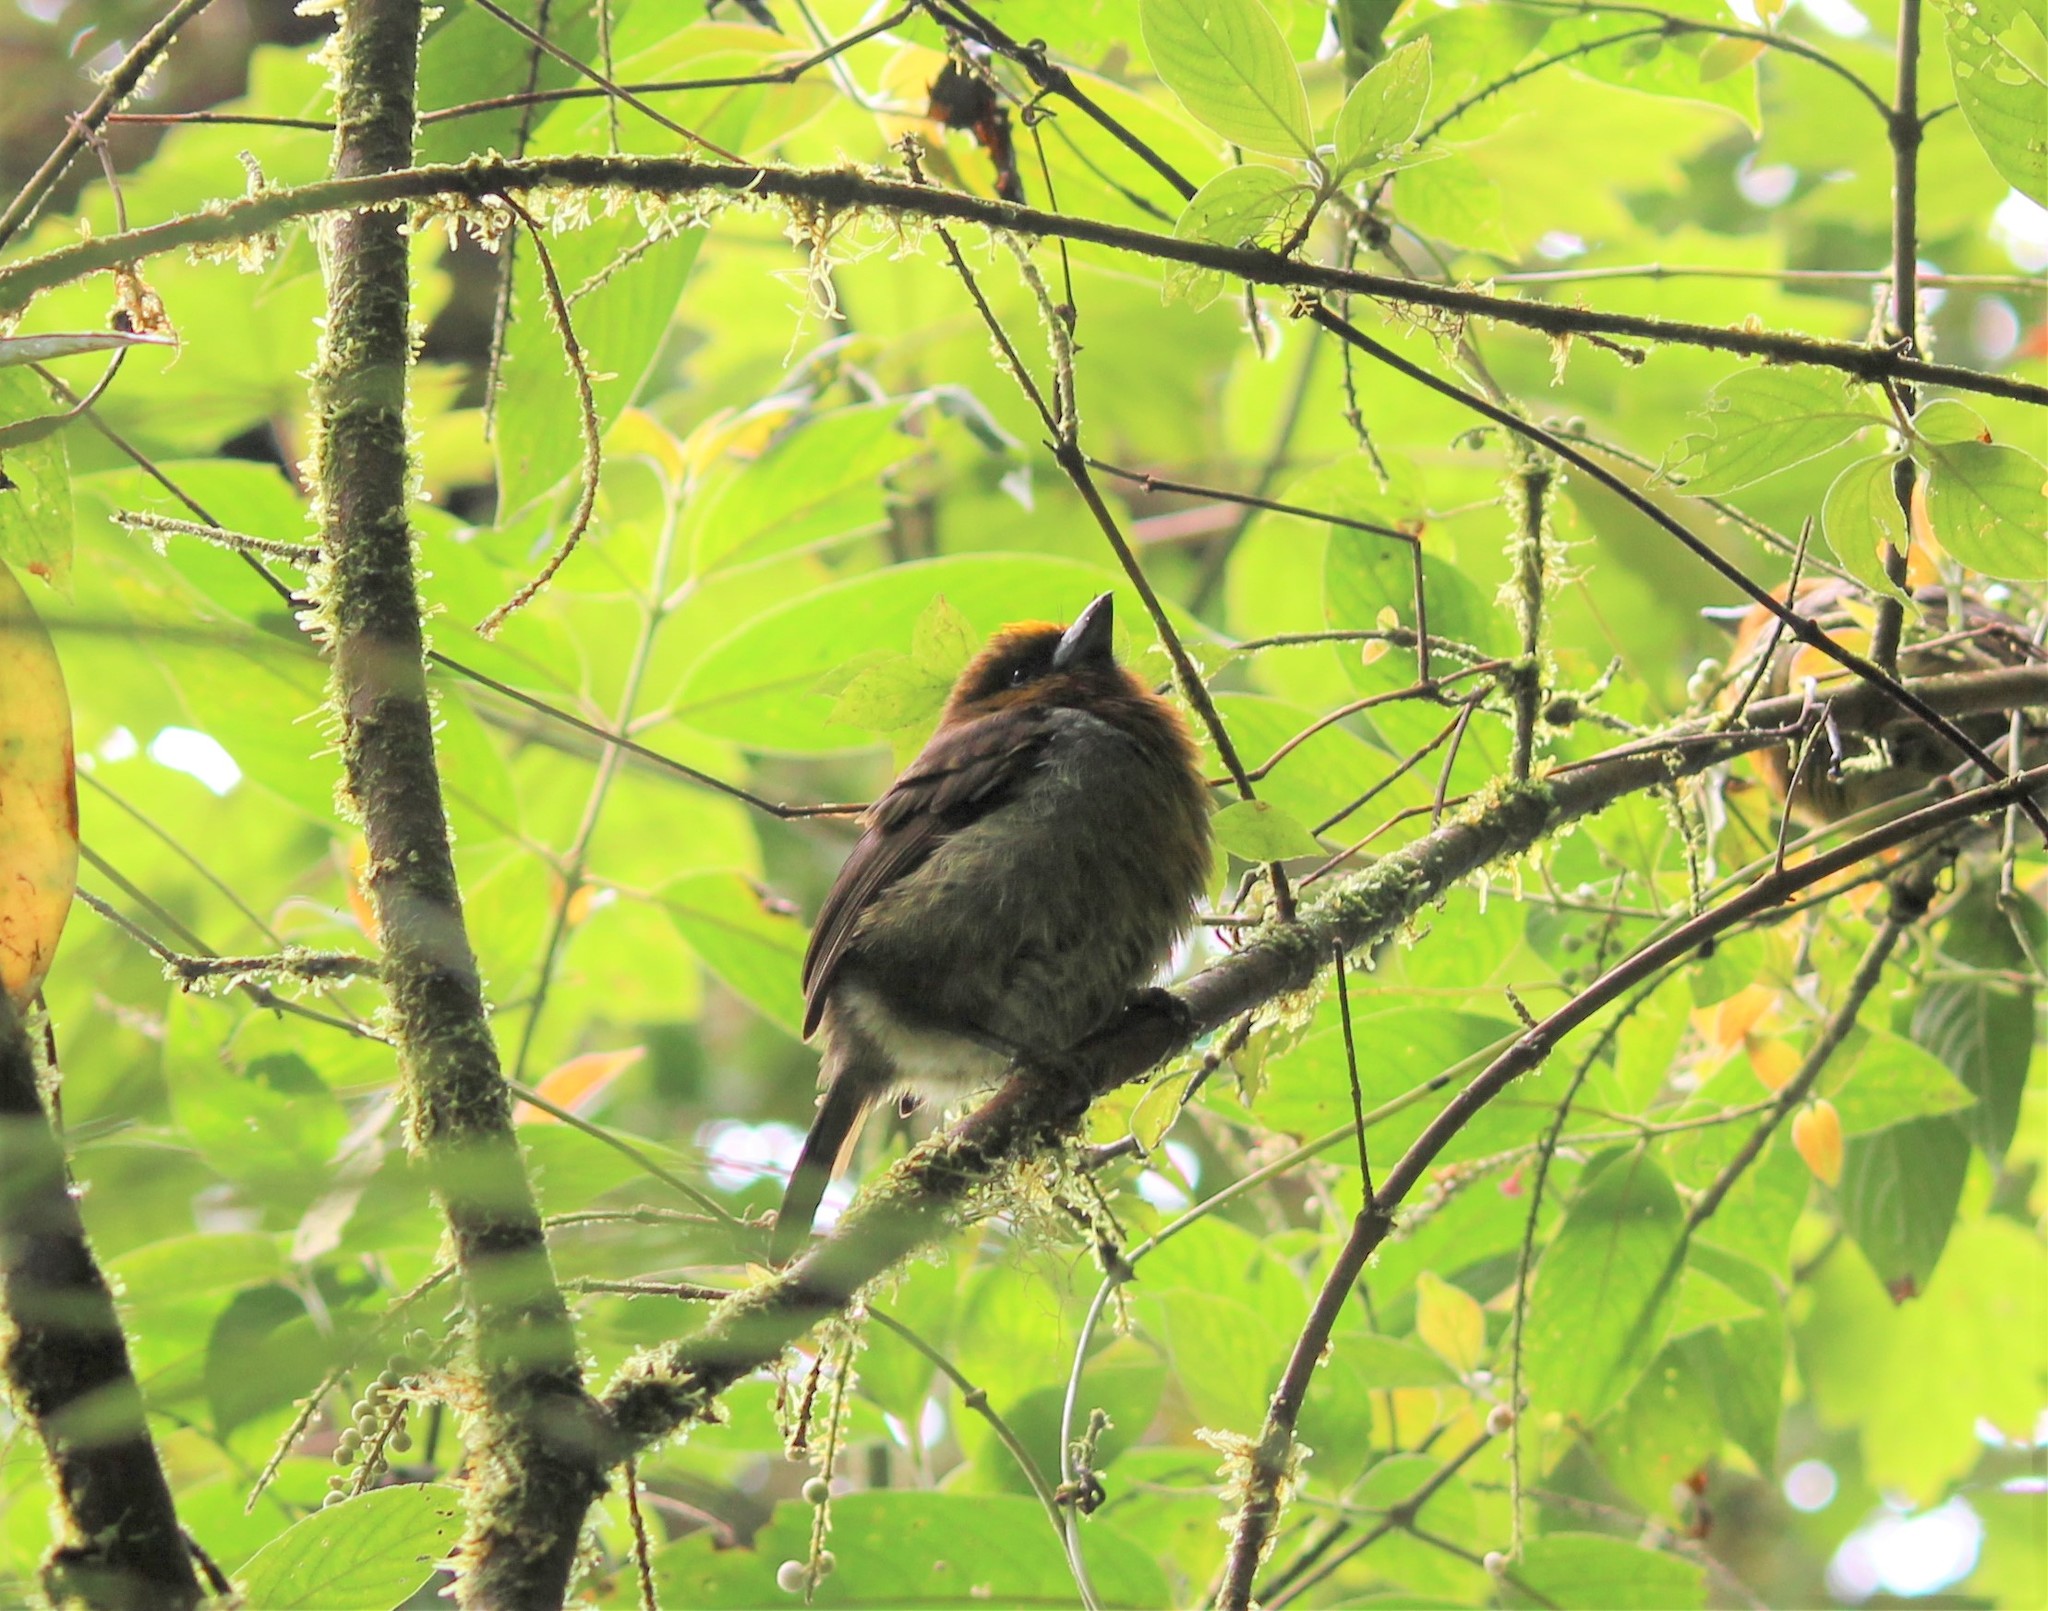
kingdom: Animalia
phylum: Chordata
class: Aves
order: Piciformes
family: Semnornithidae
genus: Semnornis
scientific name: Semnornis frantzii
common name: Prong-billed barbet
